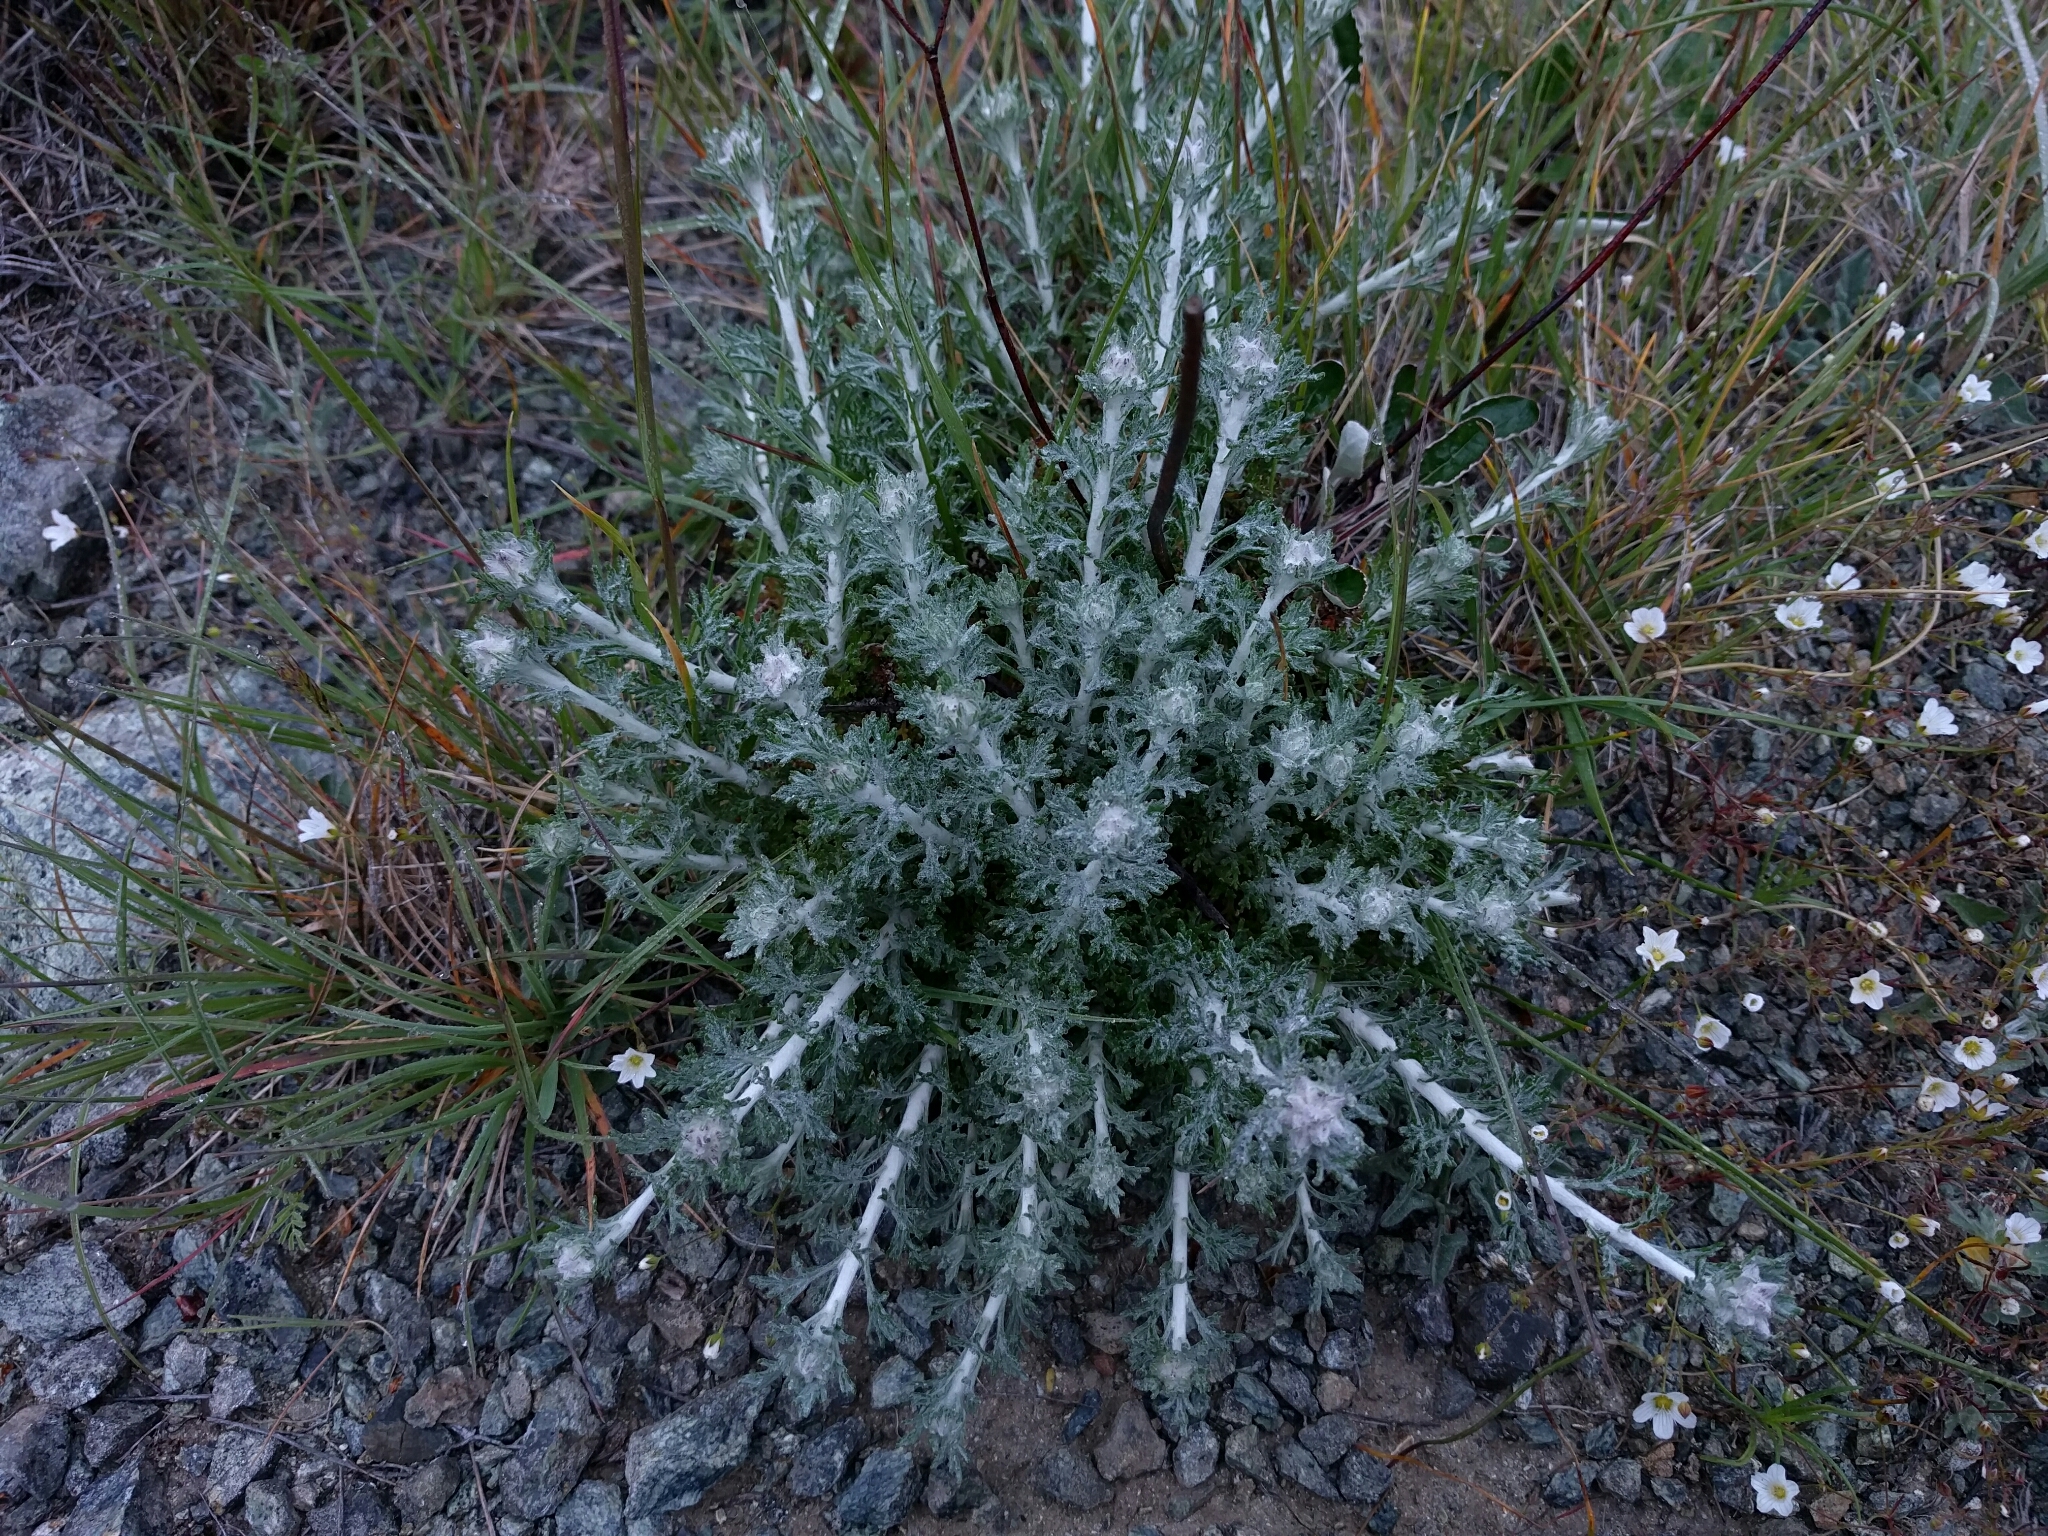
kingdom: Plantae
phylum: Tracheophyta
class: Magnoliopsida
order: Asterales
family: Asteraceae
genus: Eriophyllum
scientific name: Eriophyllum confertiflorum
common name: Golden-yarrow
